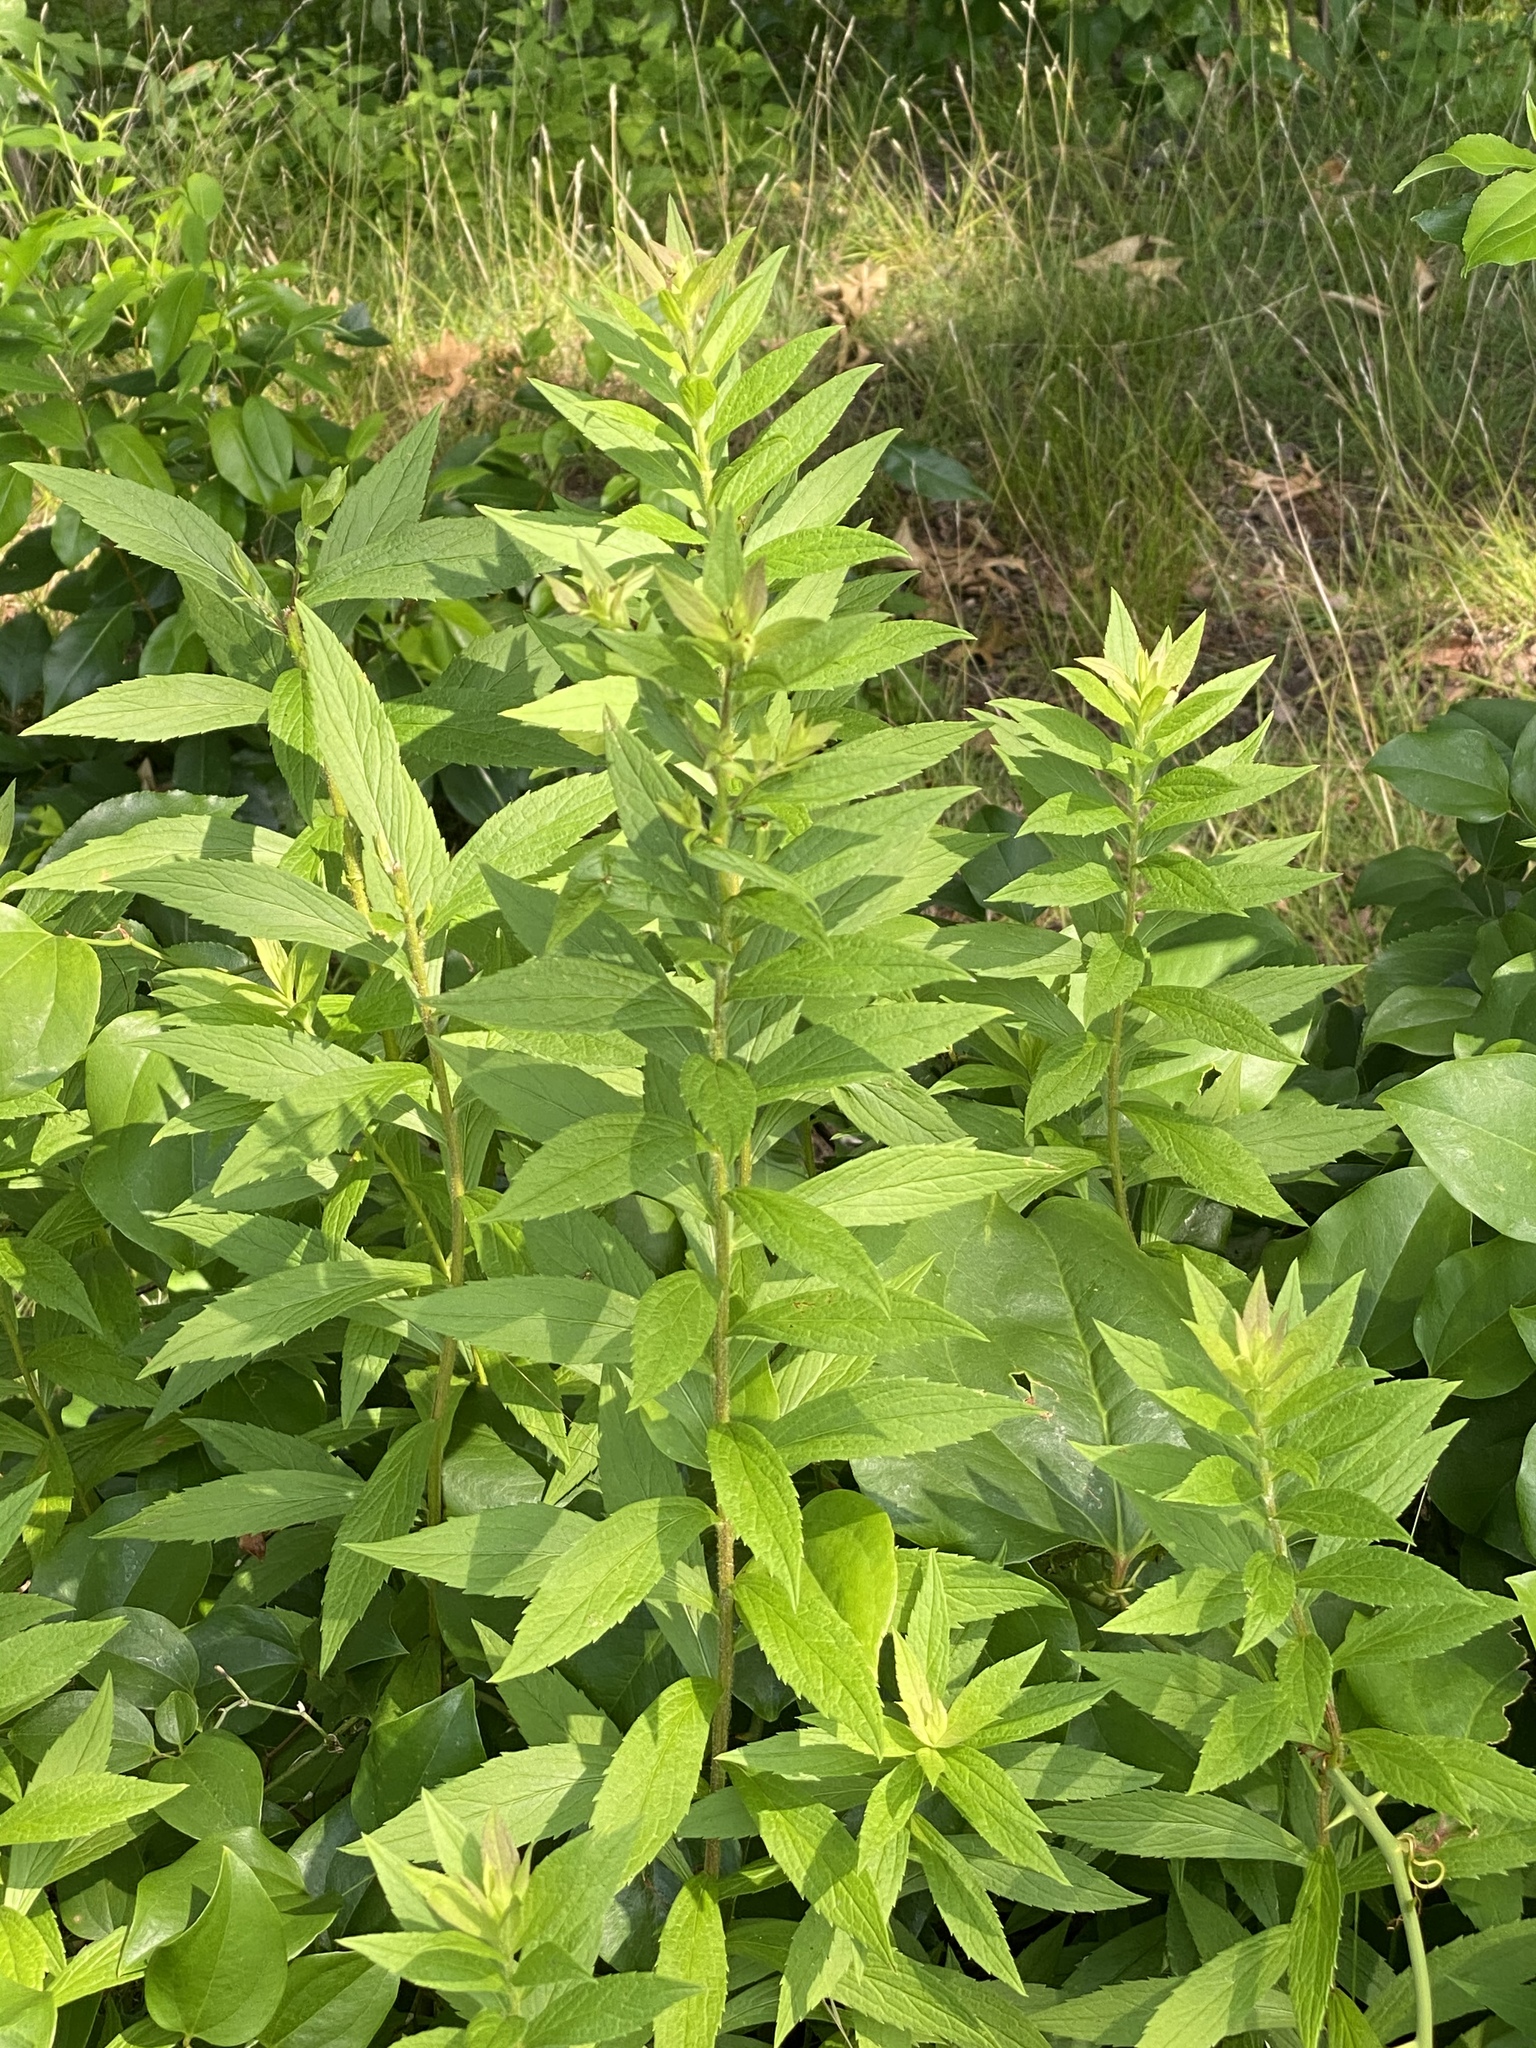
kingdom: Plantae
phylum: Tracheophyta
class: Magnoliopsida
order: Asterales
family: Asteraceae
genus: Solidago
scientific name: Solidago rugosa
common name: Rough-stemmed goldenrod
